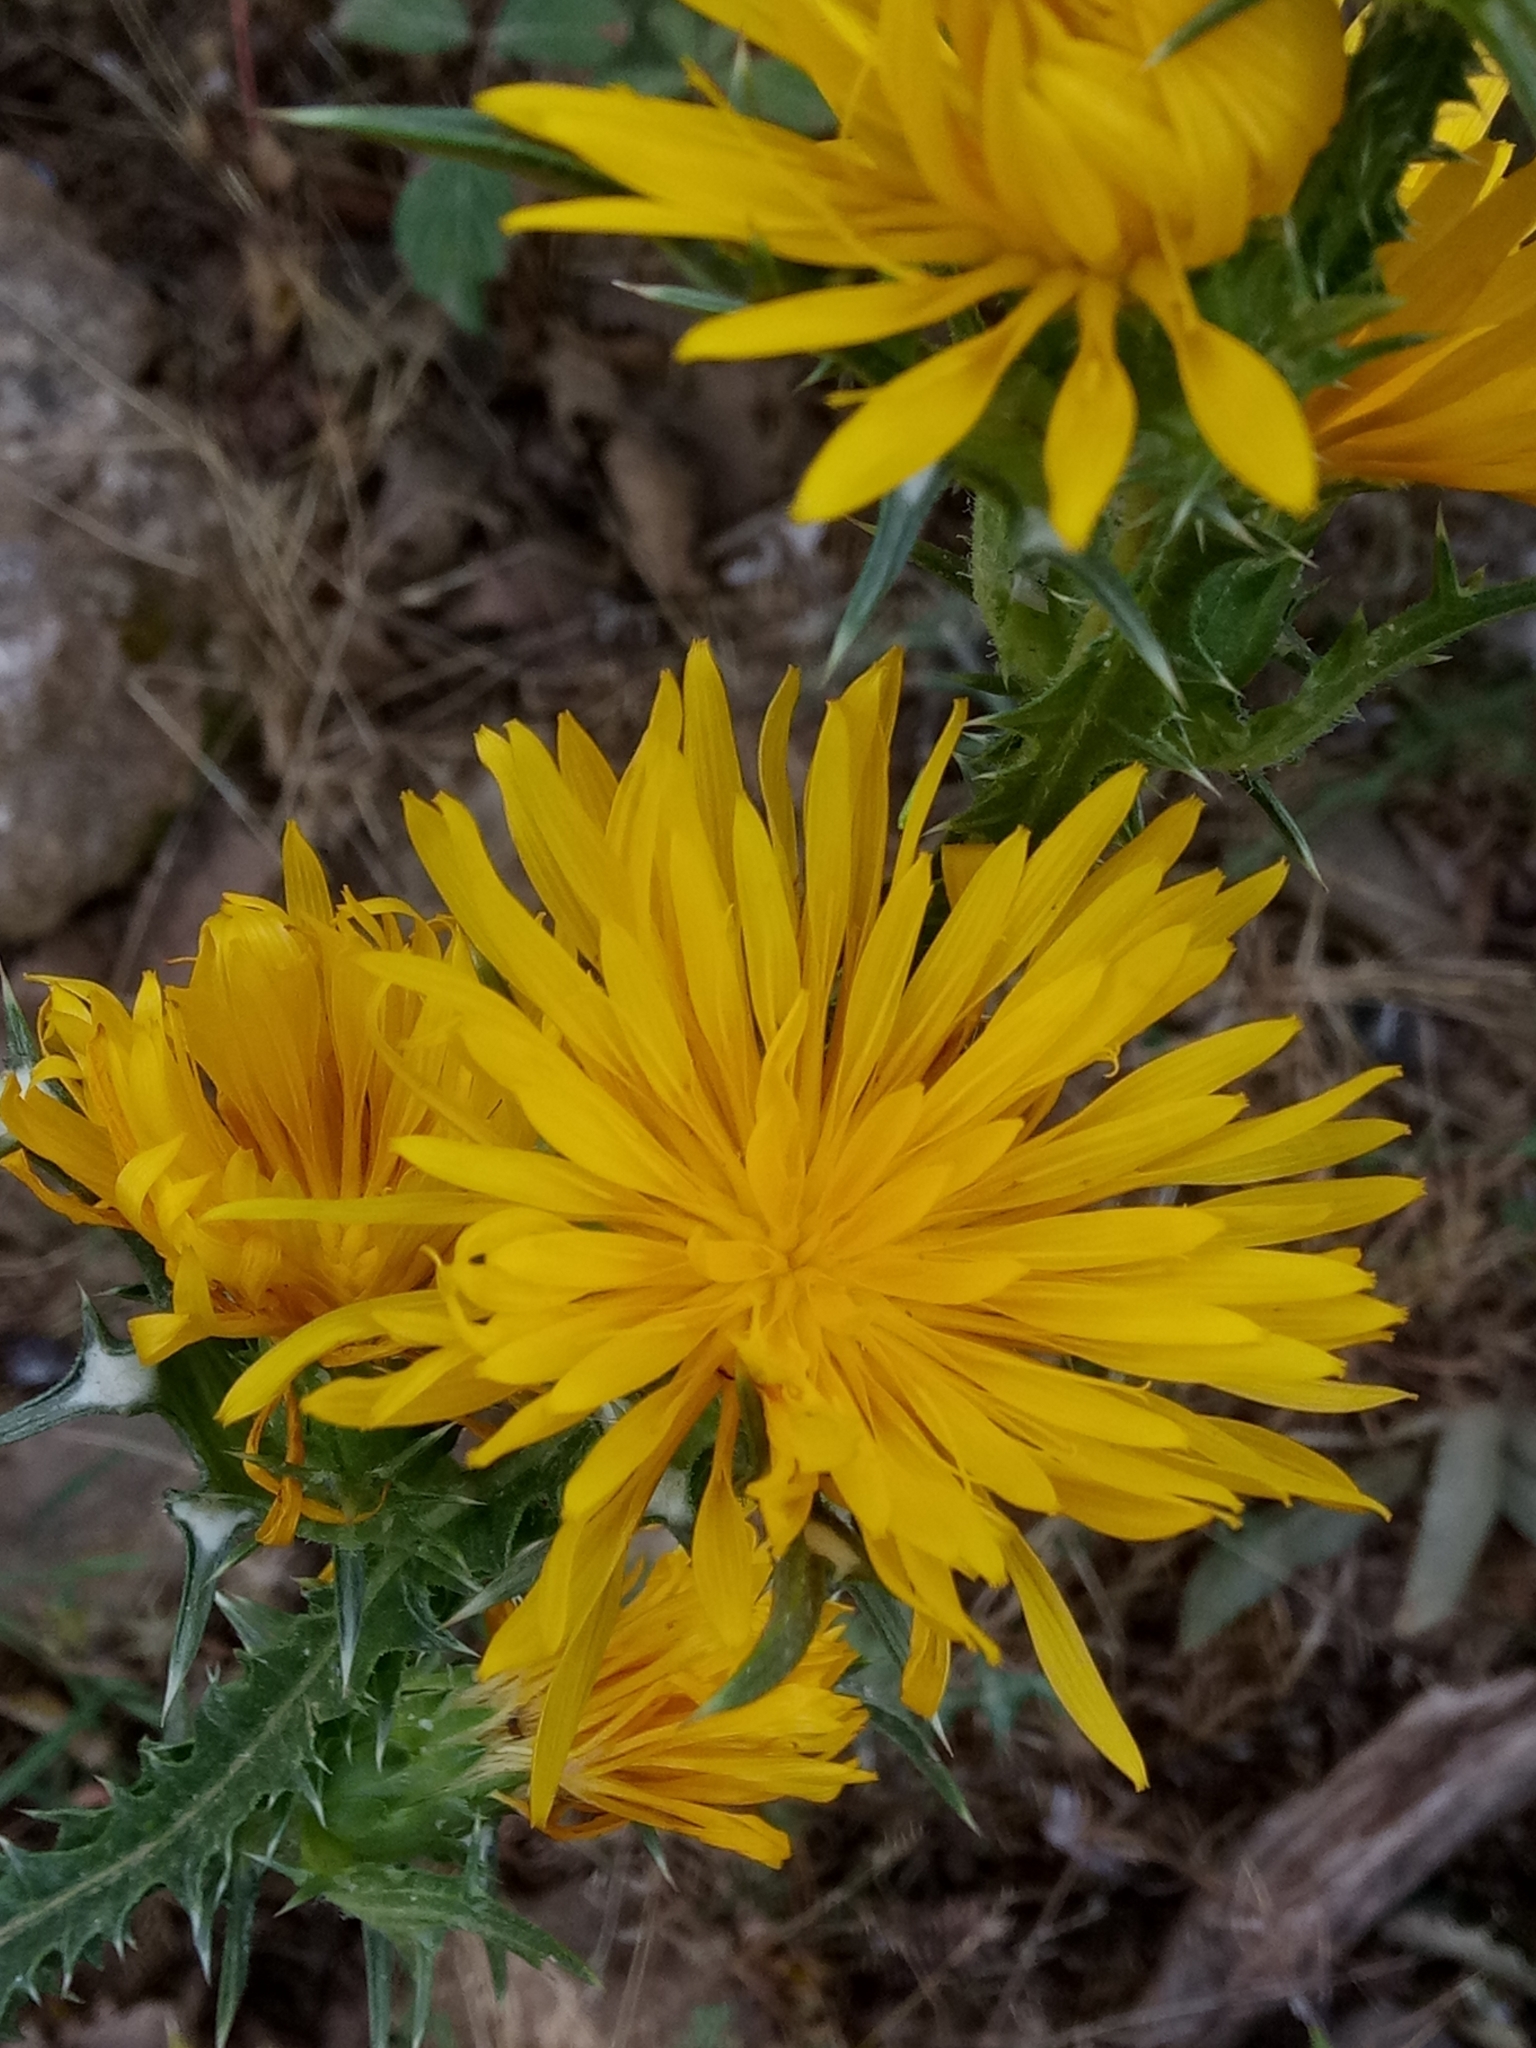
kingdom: Plantae
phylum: Tracheophyta
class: Magnoliopsida
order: Asterales
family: Asteraceae
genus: Scolymus
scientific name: Scolymus grandiflorus
